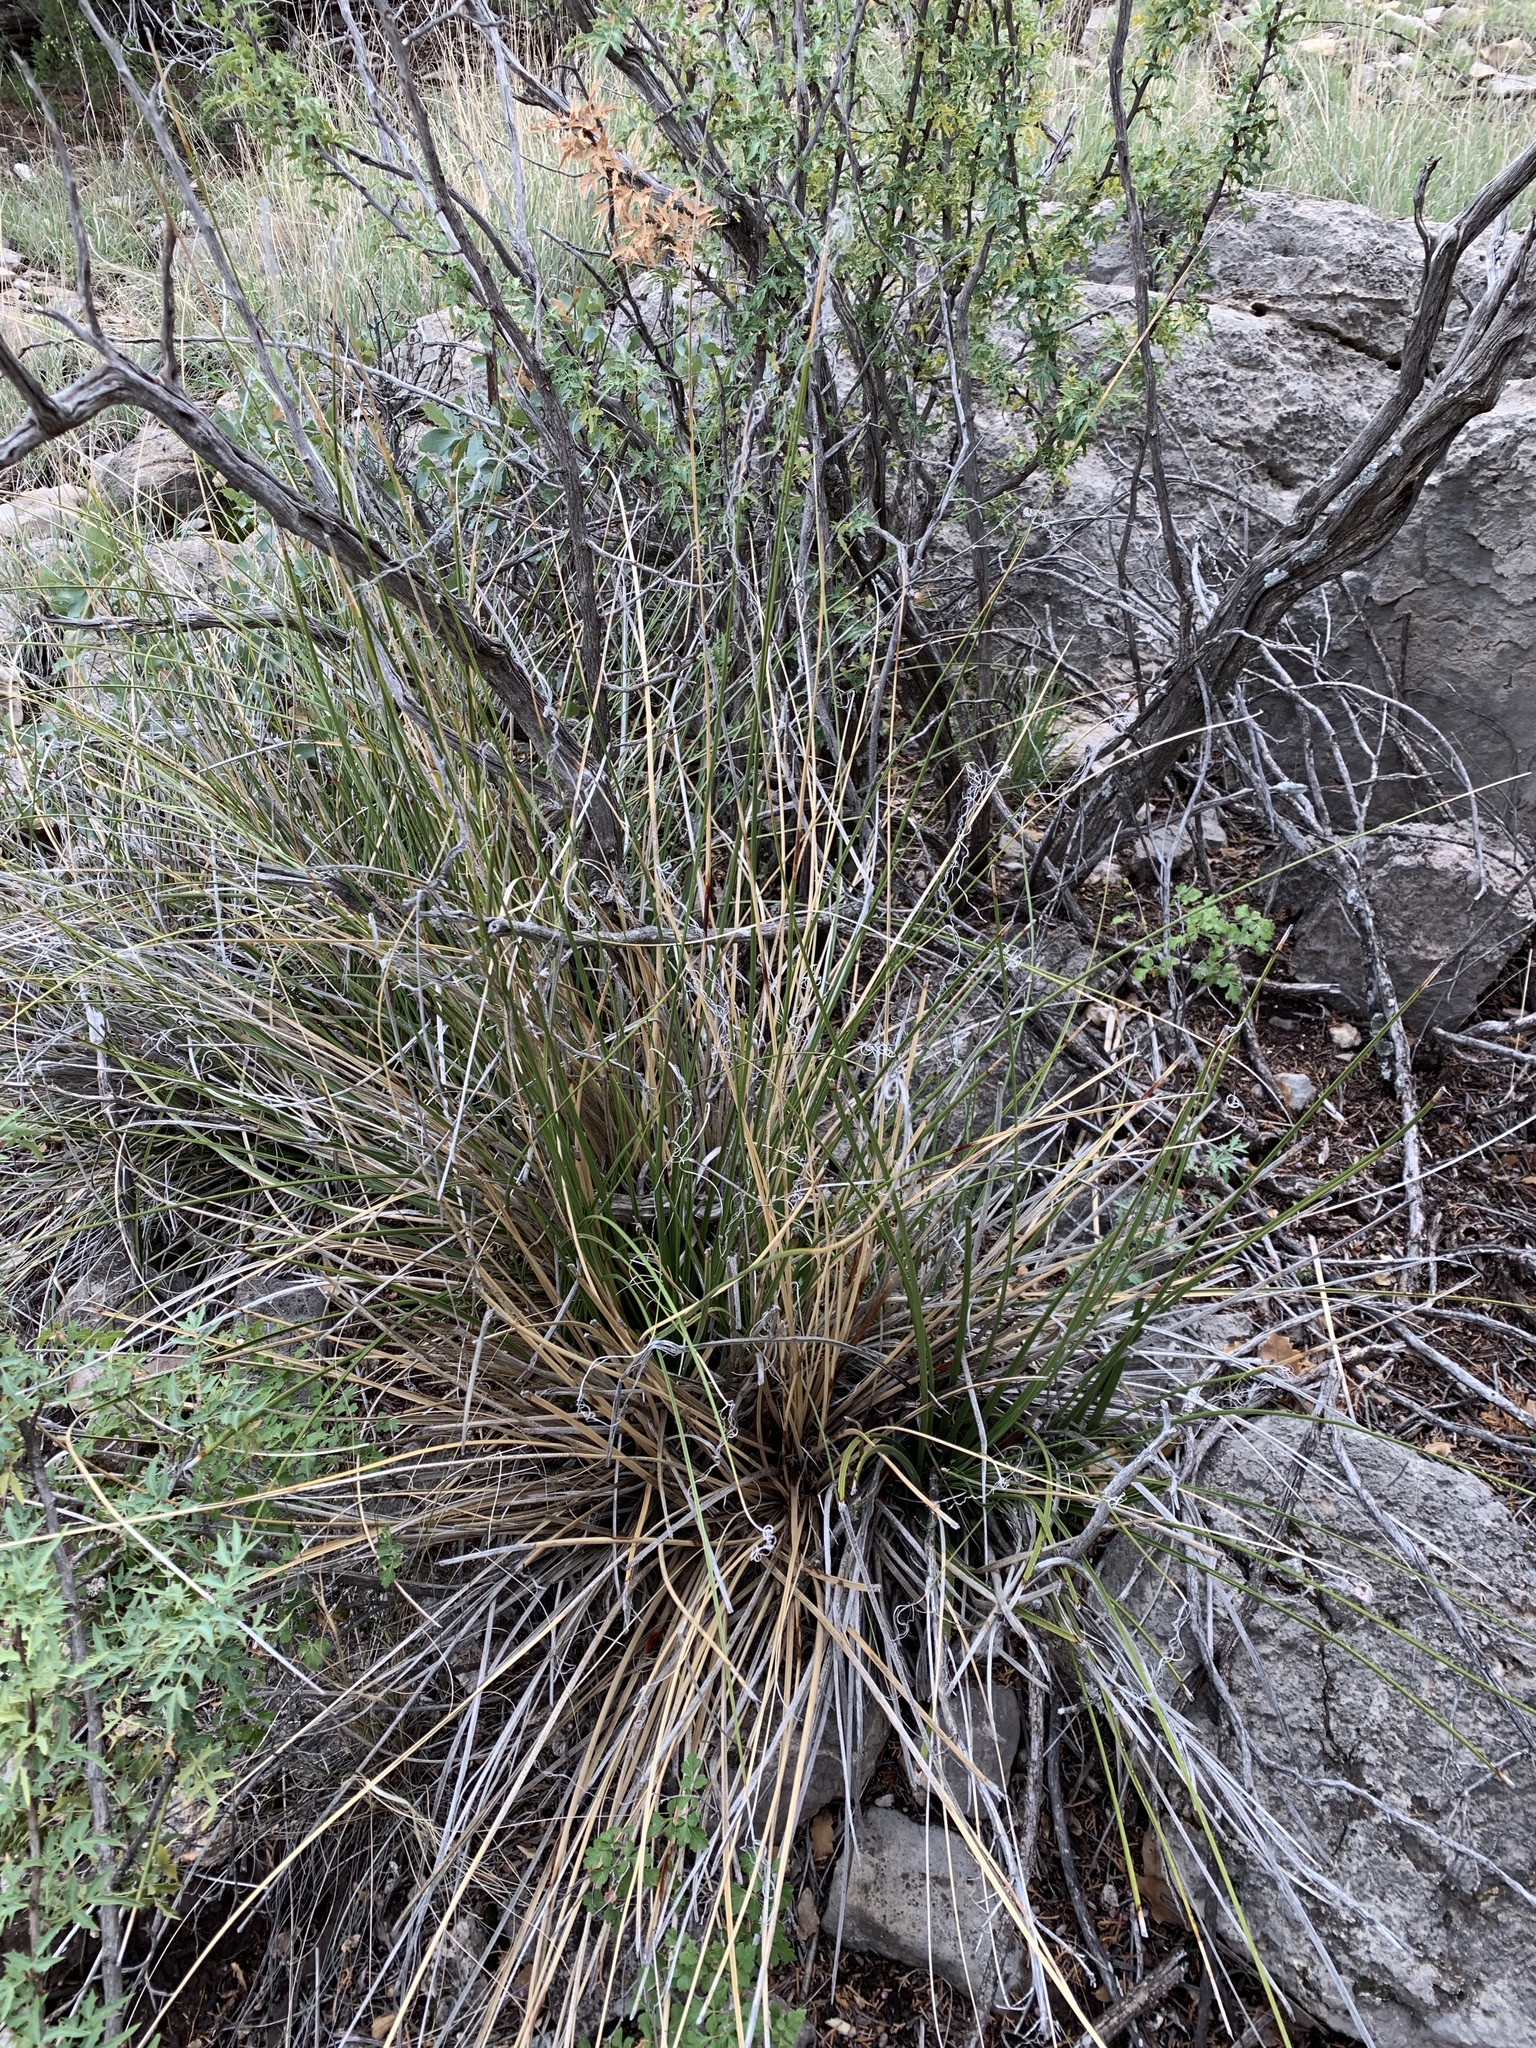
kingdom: Plantae
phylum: Tracheophyta
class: Liliopsida
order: Asparagales
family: Asparagaceae
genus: Nolina
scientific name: Nolina texana
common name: Texas sacahuiste
